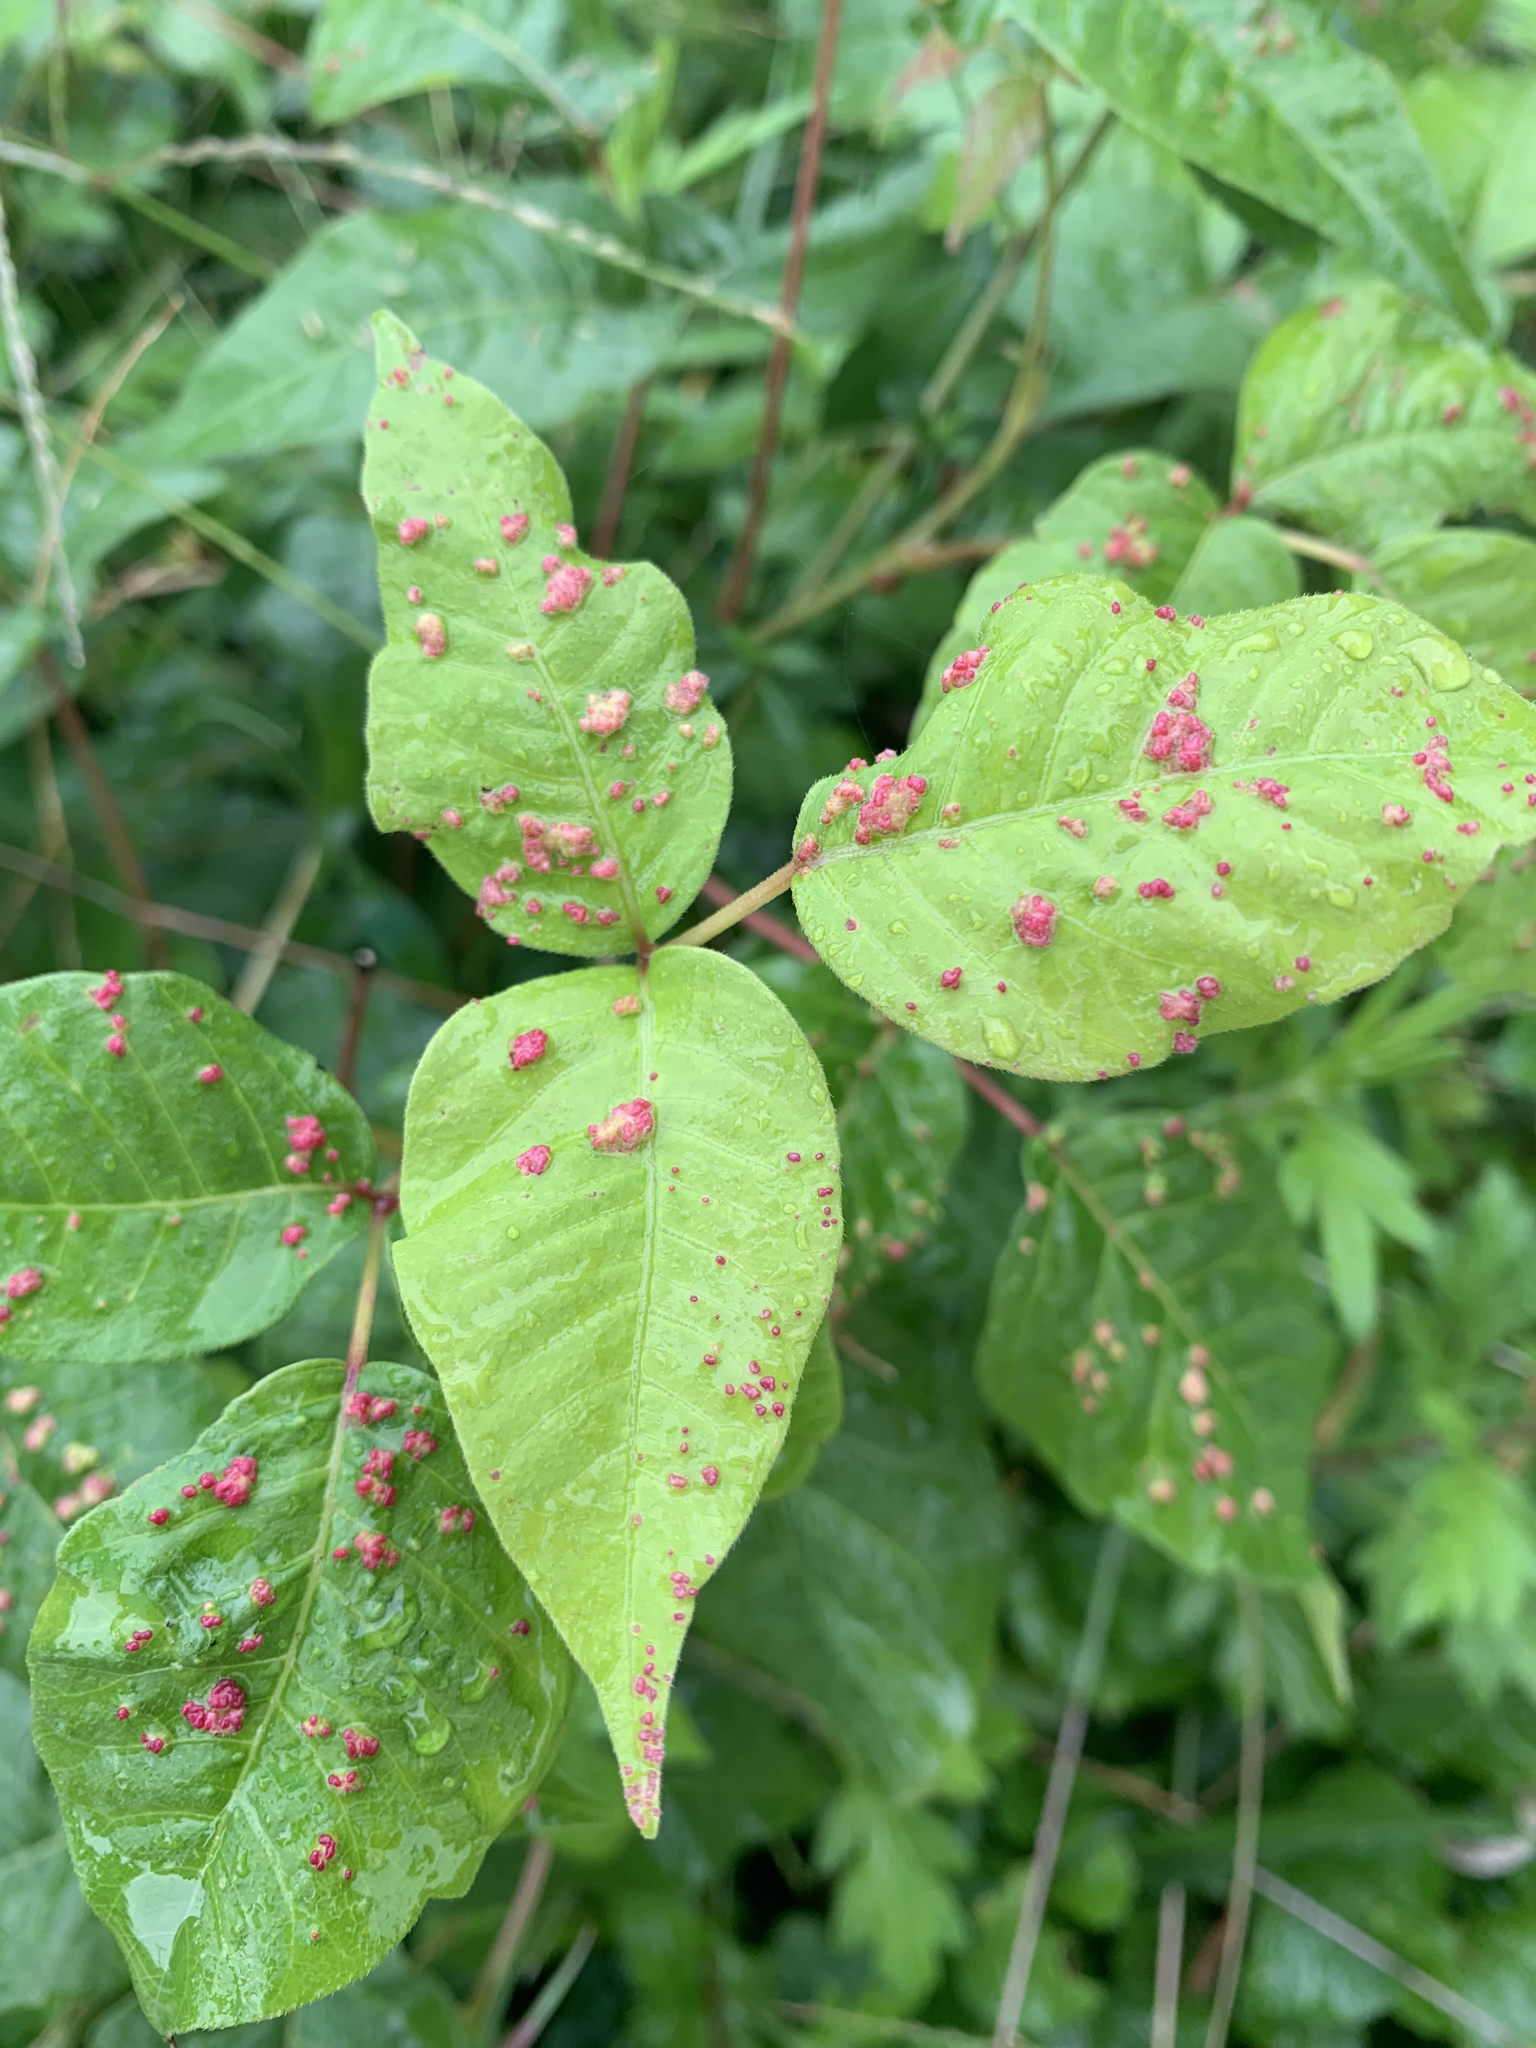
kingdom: Animalia
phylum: Arthropoda
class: Arachnida
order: Trombidiformes
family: Eriophyidae
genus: Aculops
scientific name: Aculops
